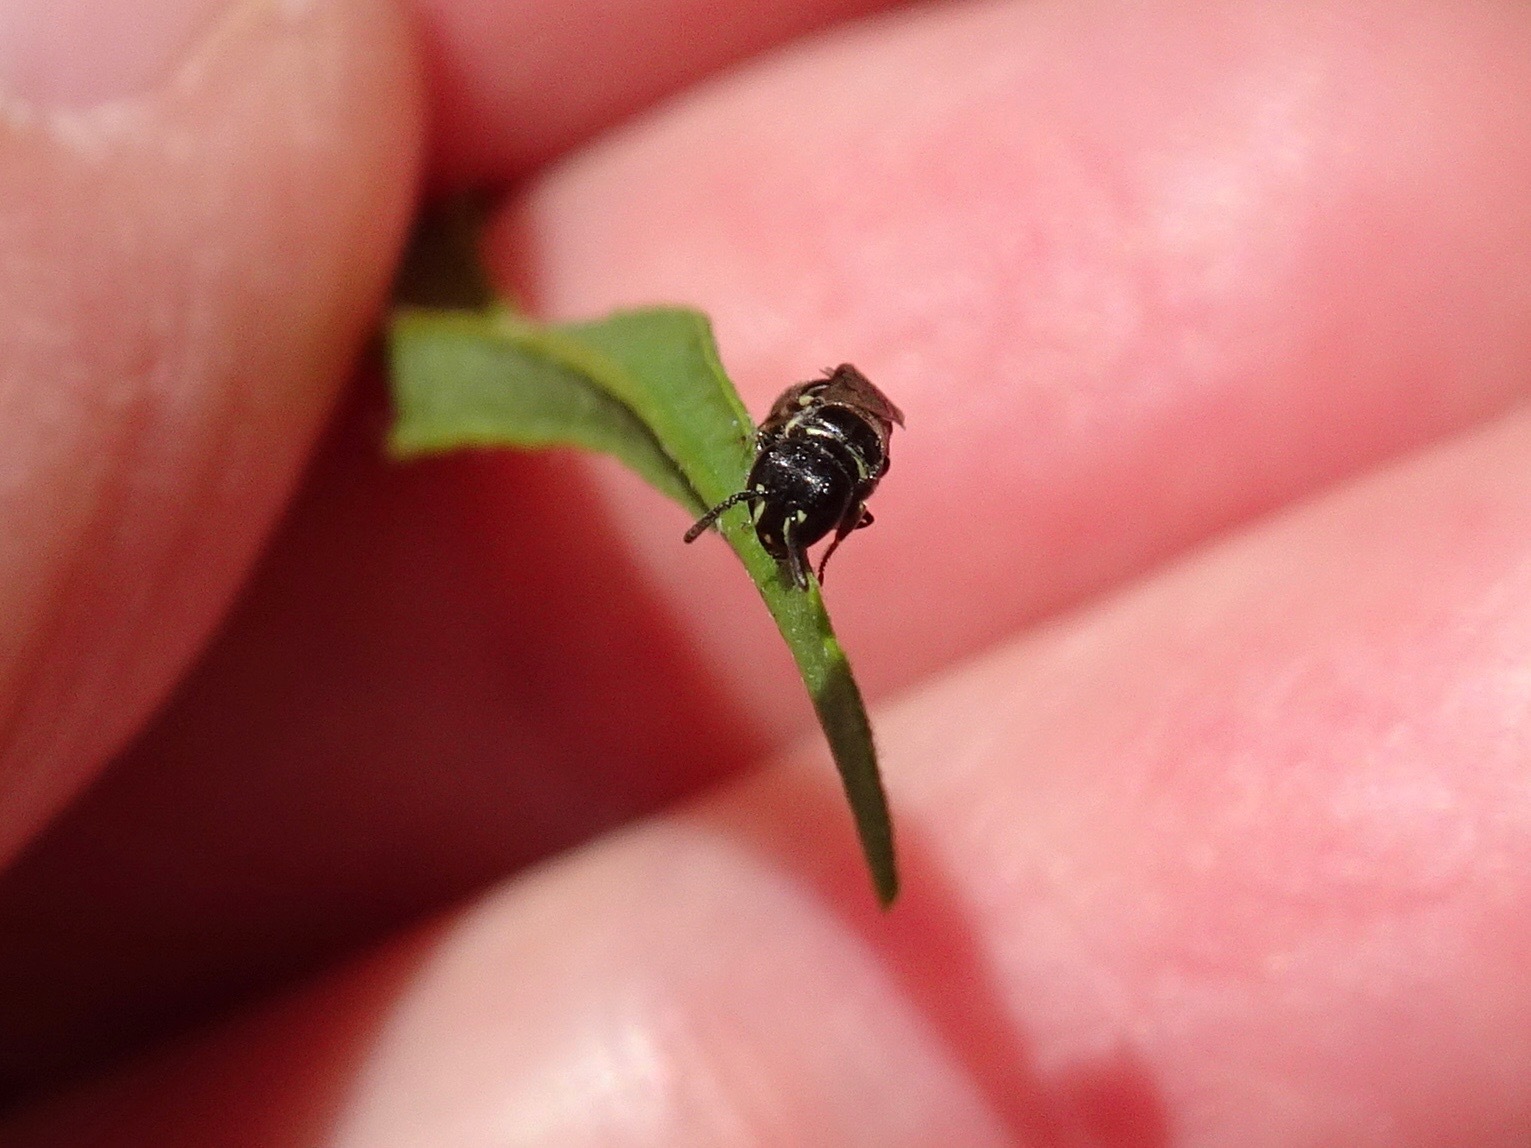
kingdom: Animalia
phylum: Arthropoda
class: Insecta
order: Hymenoptera
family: Colletidae
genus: Hylaeus
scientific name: Hylaeus
